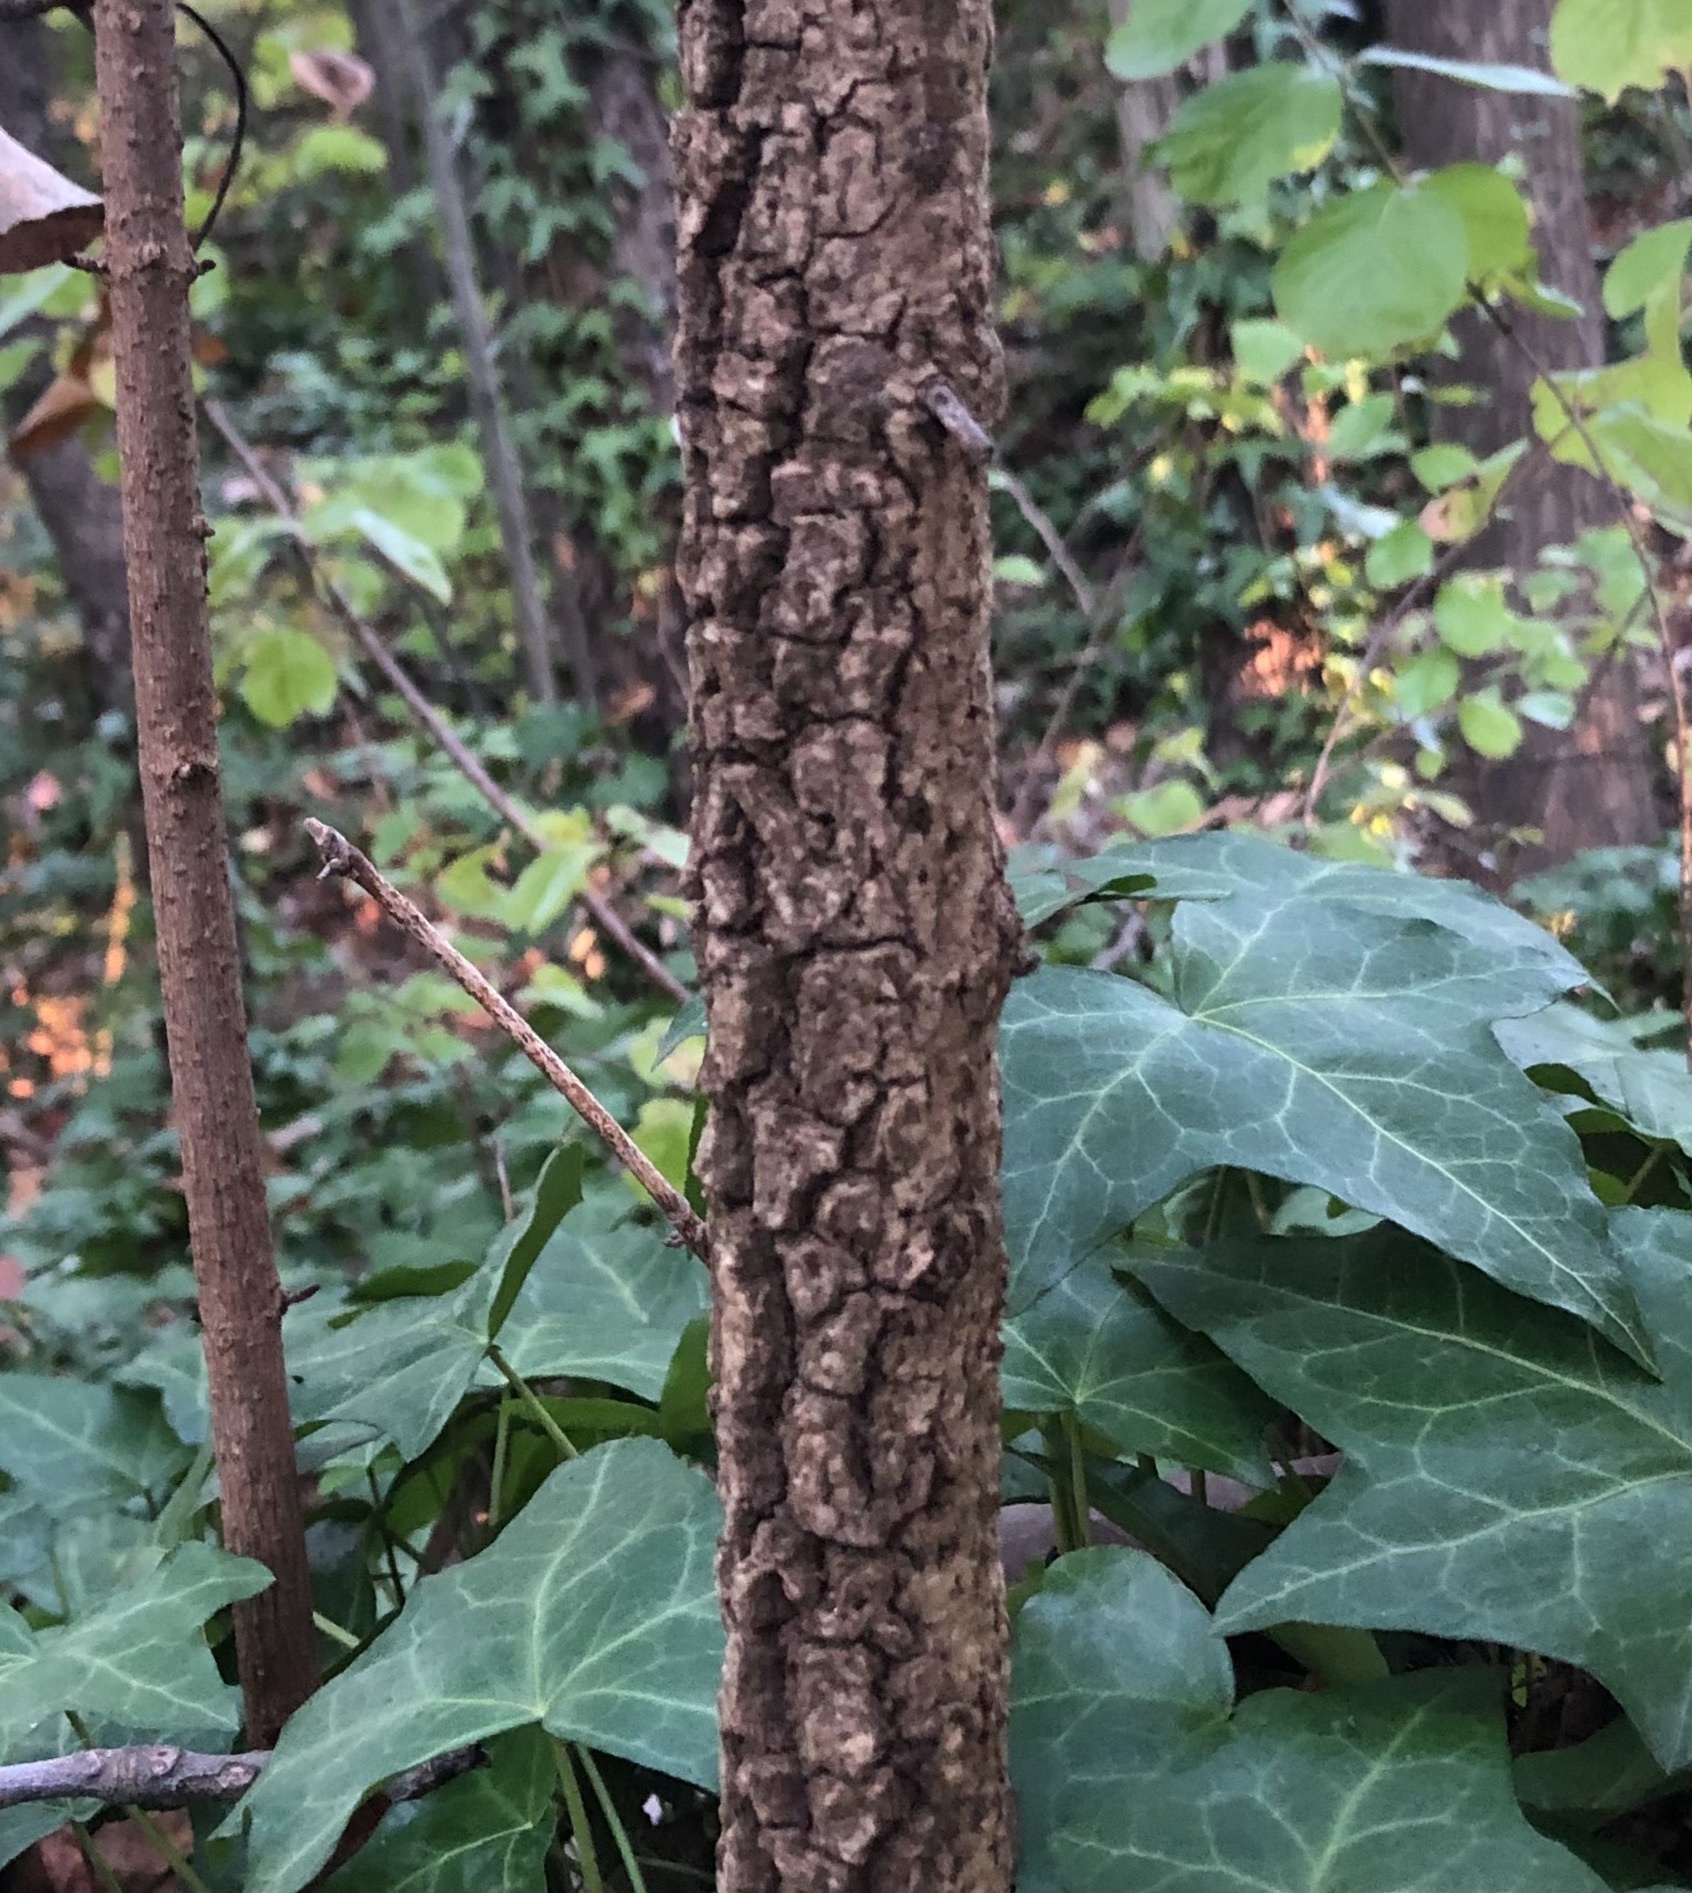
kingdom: Plantae
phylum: Tracheophyta
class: Magnoliopsida
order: Dipsacales
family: Viburnaceae
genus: Viburnum
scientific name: Viburnum rufidulum
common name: Blue haw
